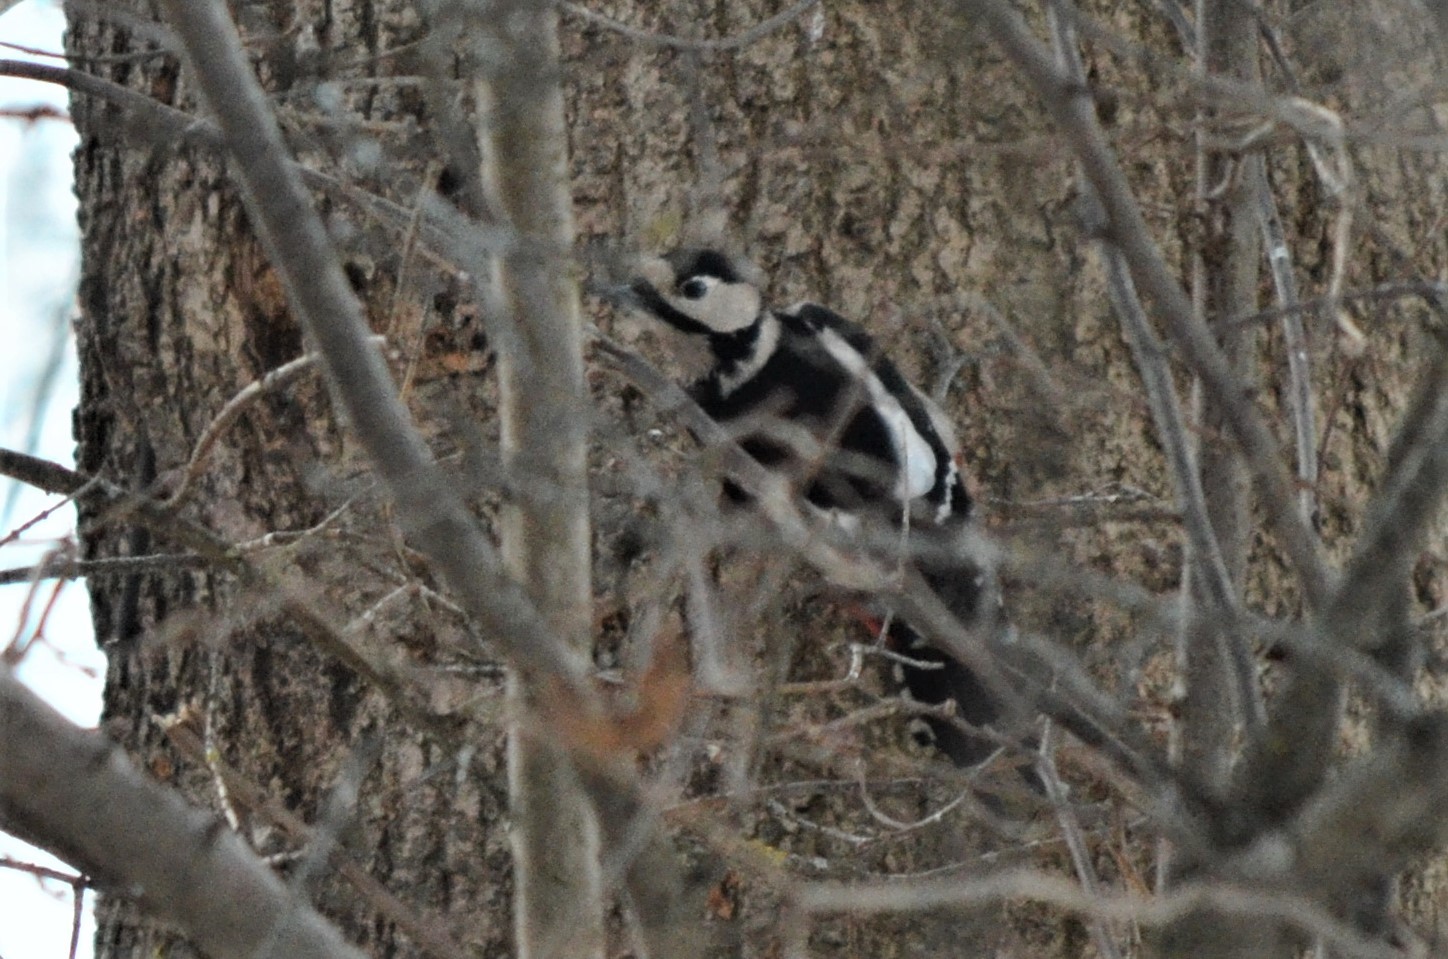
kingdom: Animalia
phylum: Chordata
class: Aves
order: Piciformes
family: Picidae
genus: Dendrocopos
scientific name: Dendrocopos major
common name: Great spotted woodpecker
